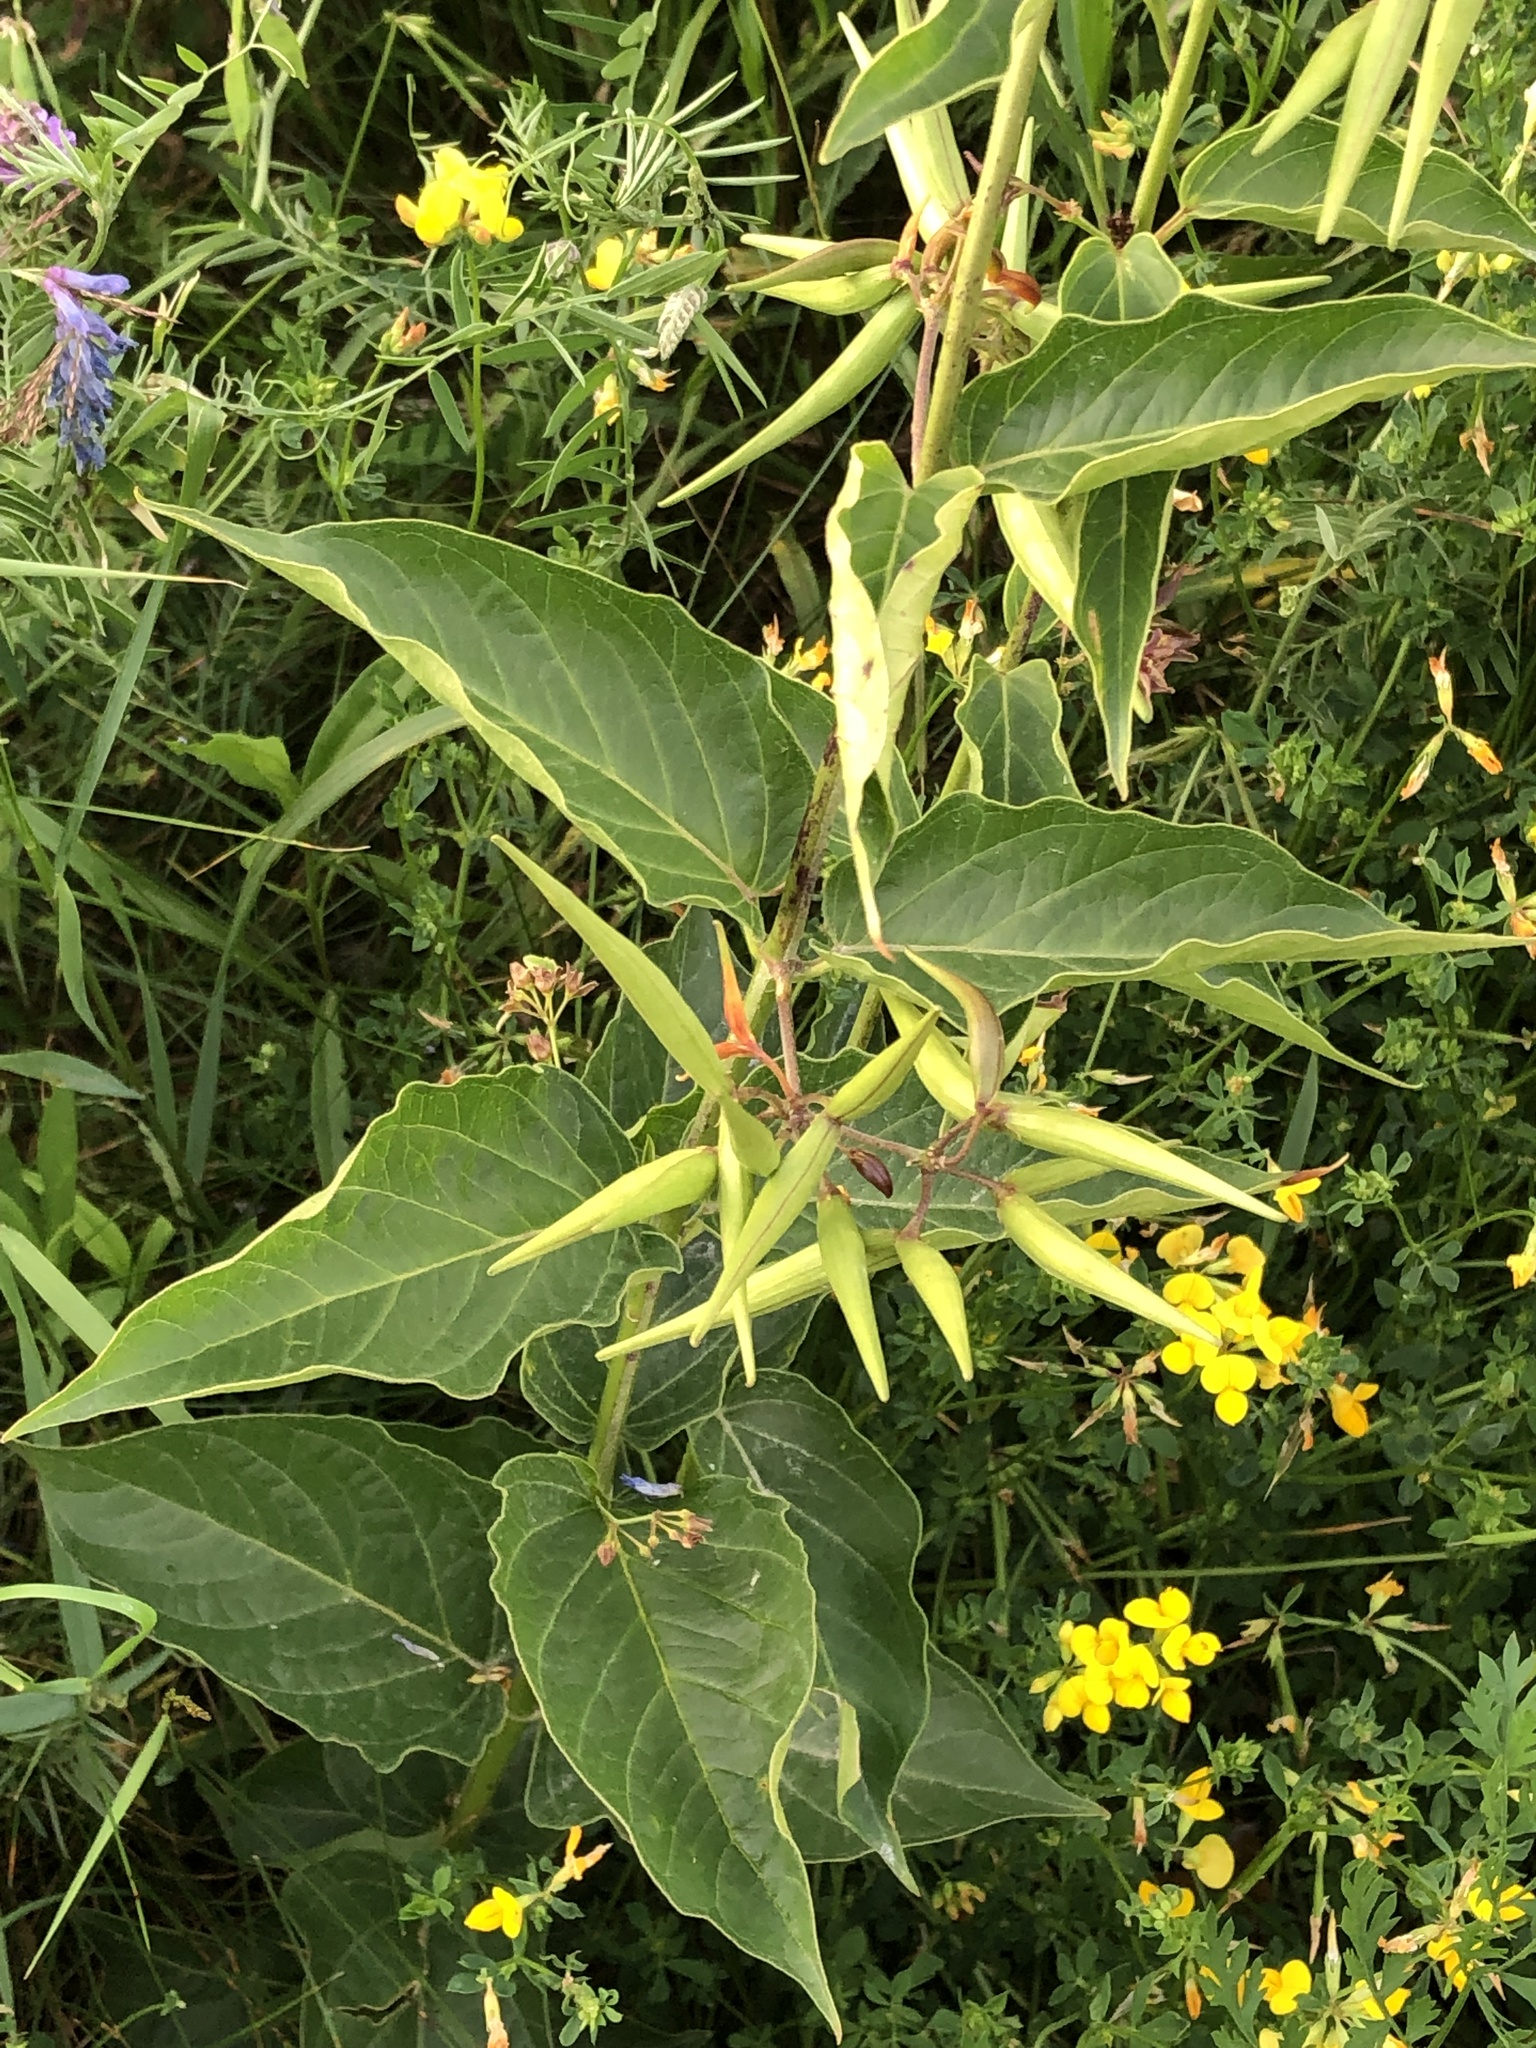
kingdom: Plantae
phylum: Tracheophyta
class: Magnoliopsida
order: Gentianales
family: Apocynaceae
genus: Vincetoxicum
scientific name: Vincetoxicum rossicum
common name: Dog-strangling vine
